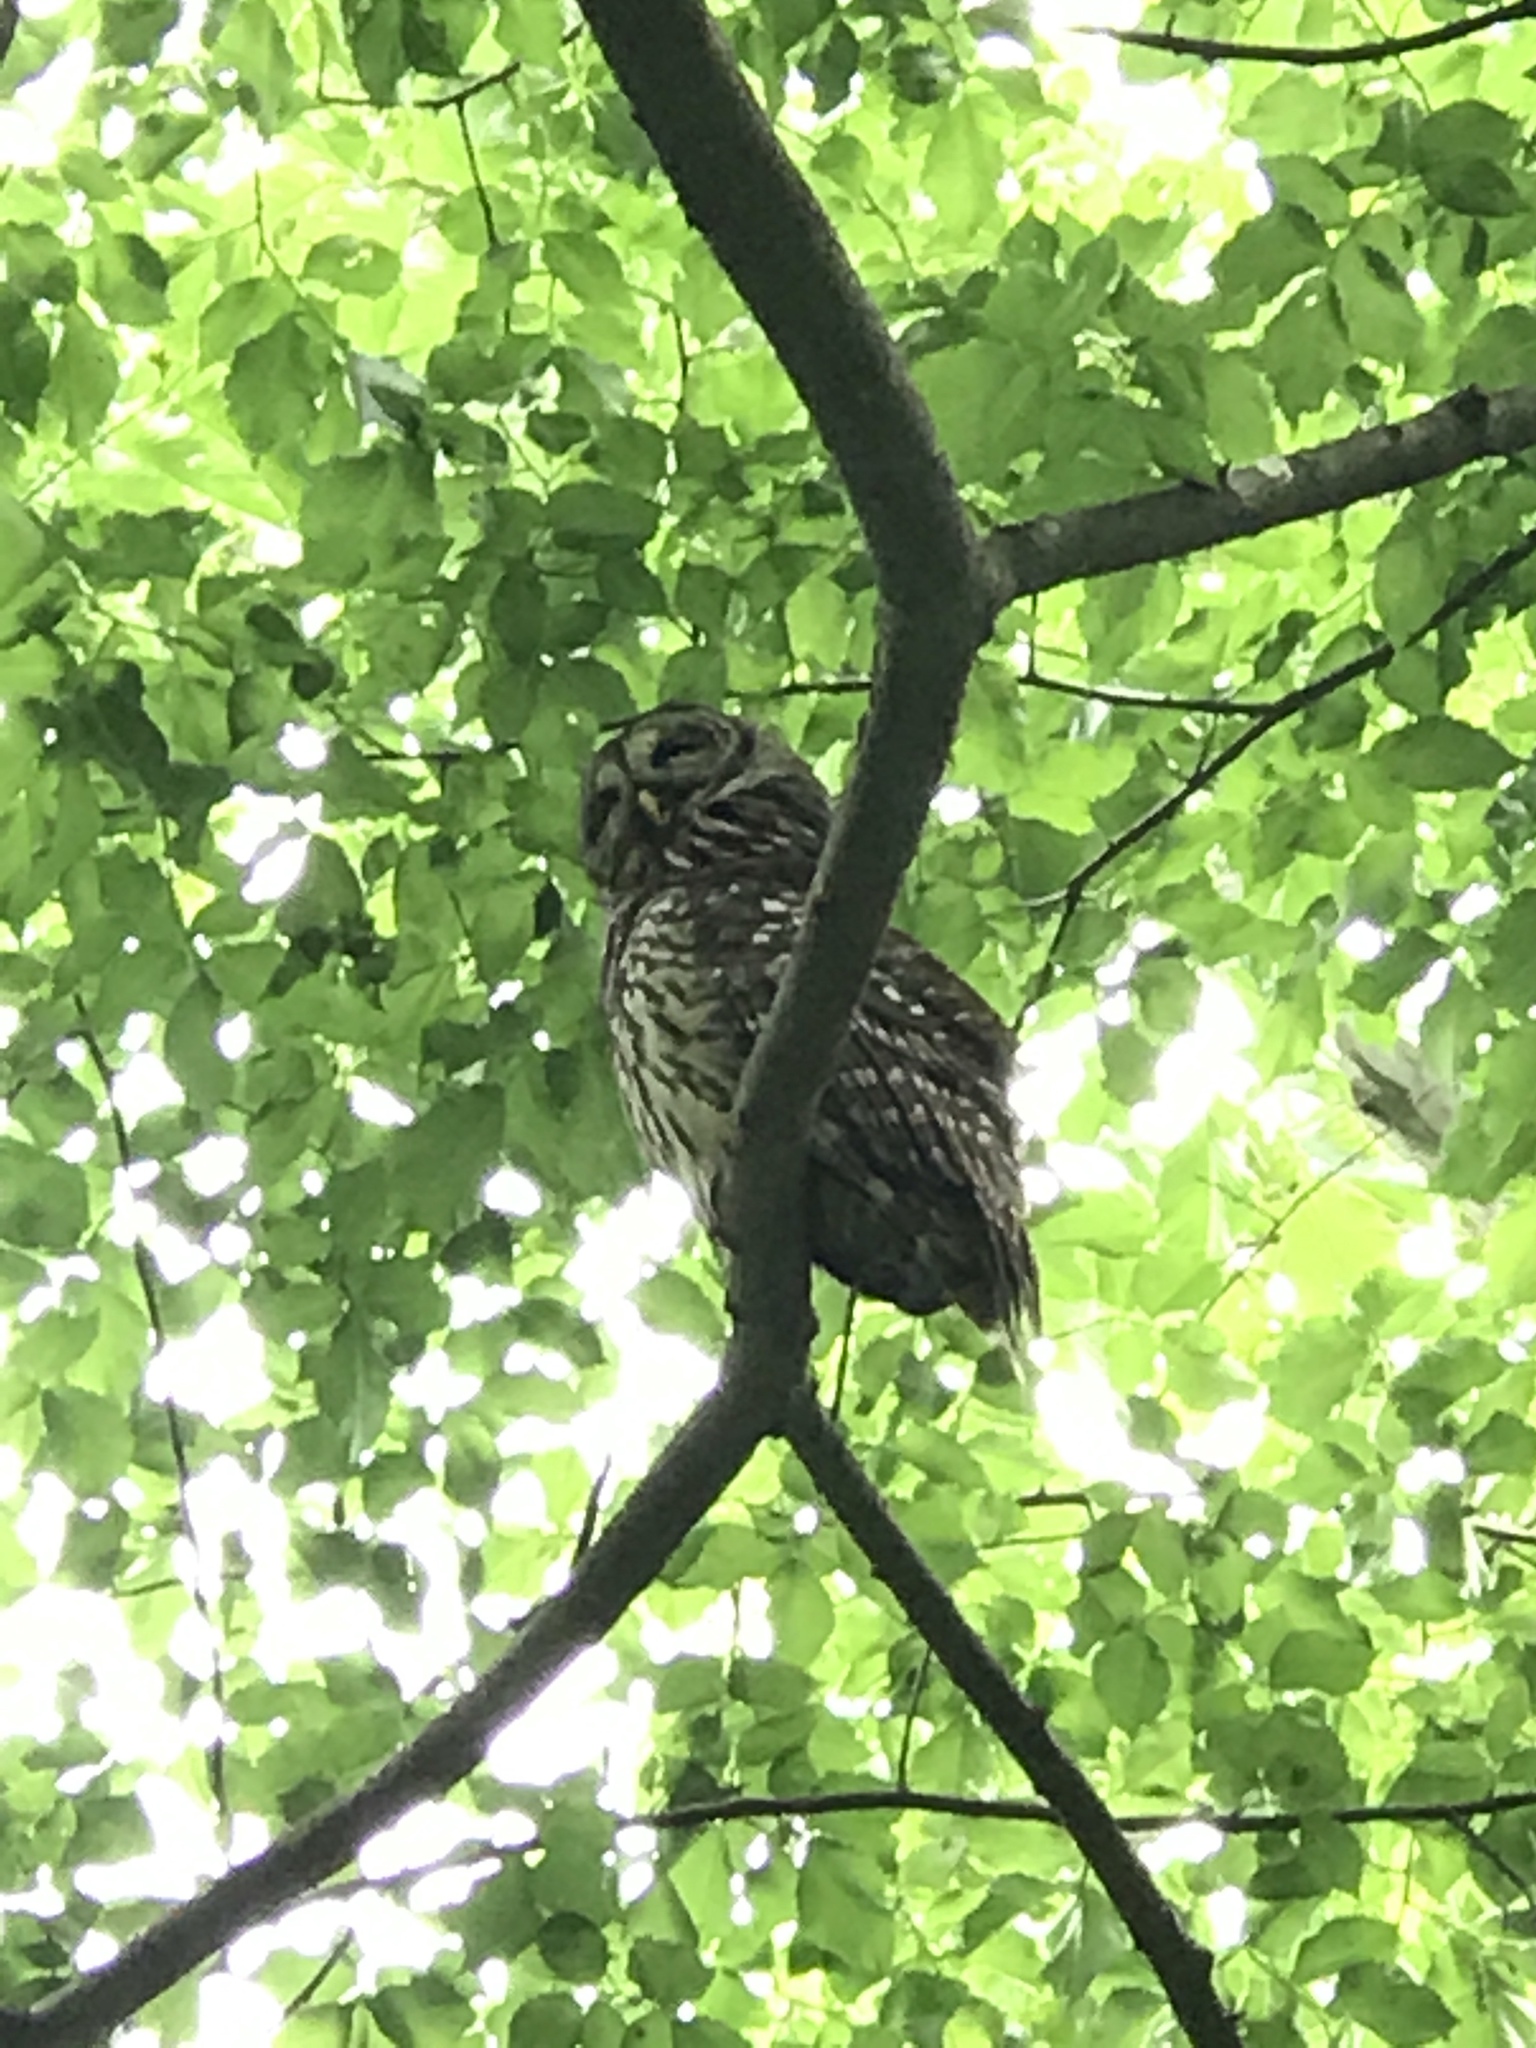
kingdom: Animalia
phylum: Chordata
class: Aves
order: Strigiformes
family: Strigidae
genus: Strix
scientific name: Strix varia
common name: Barred owl
